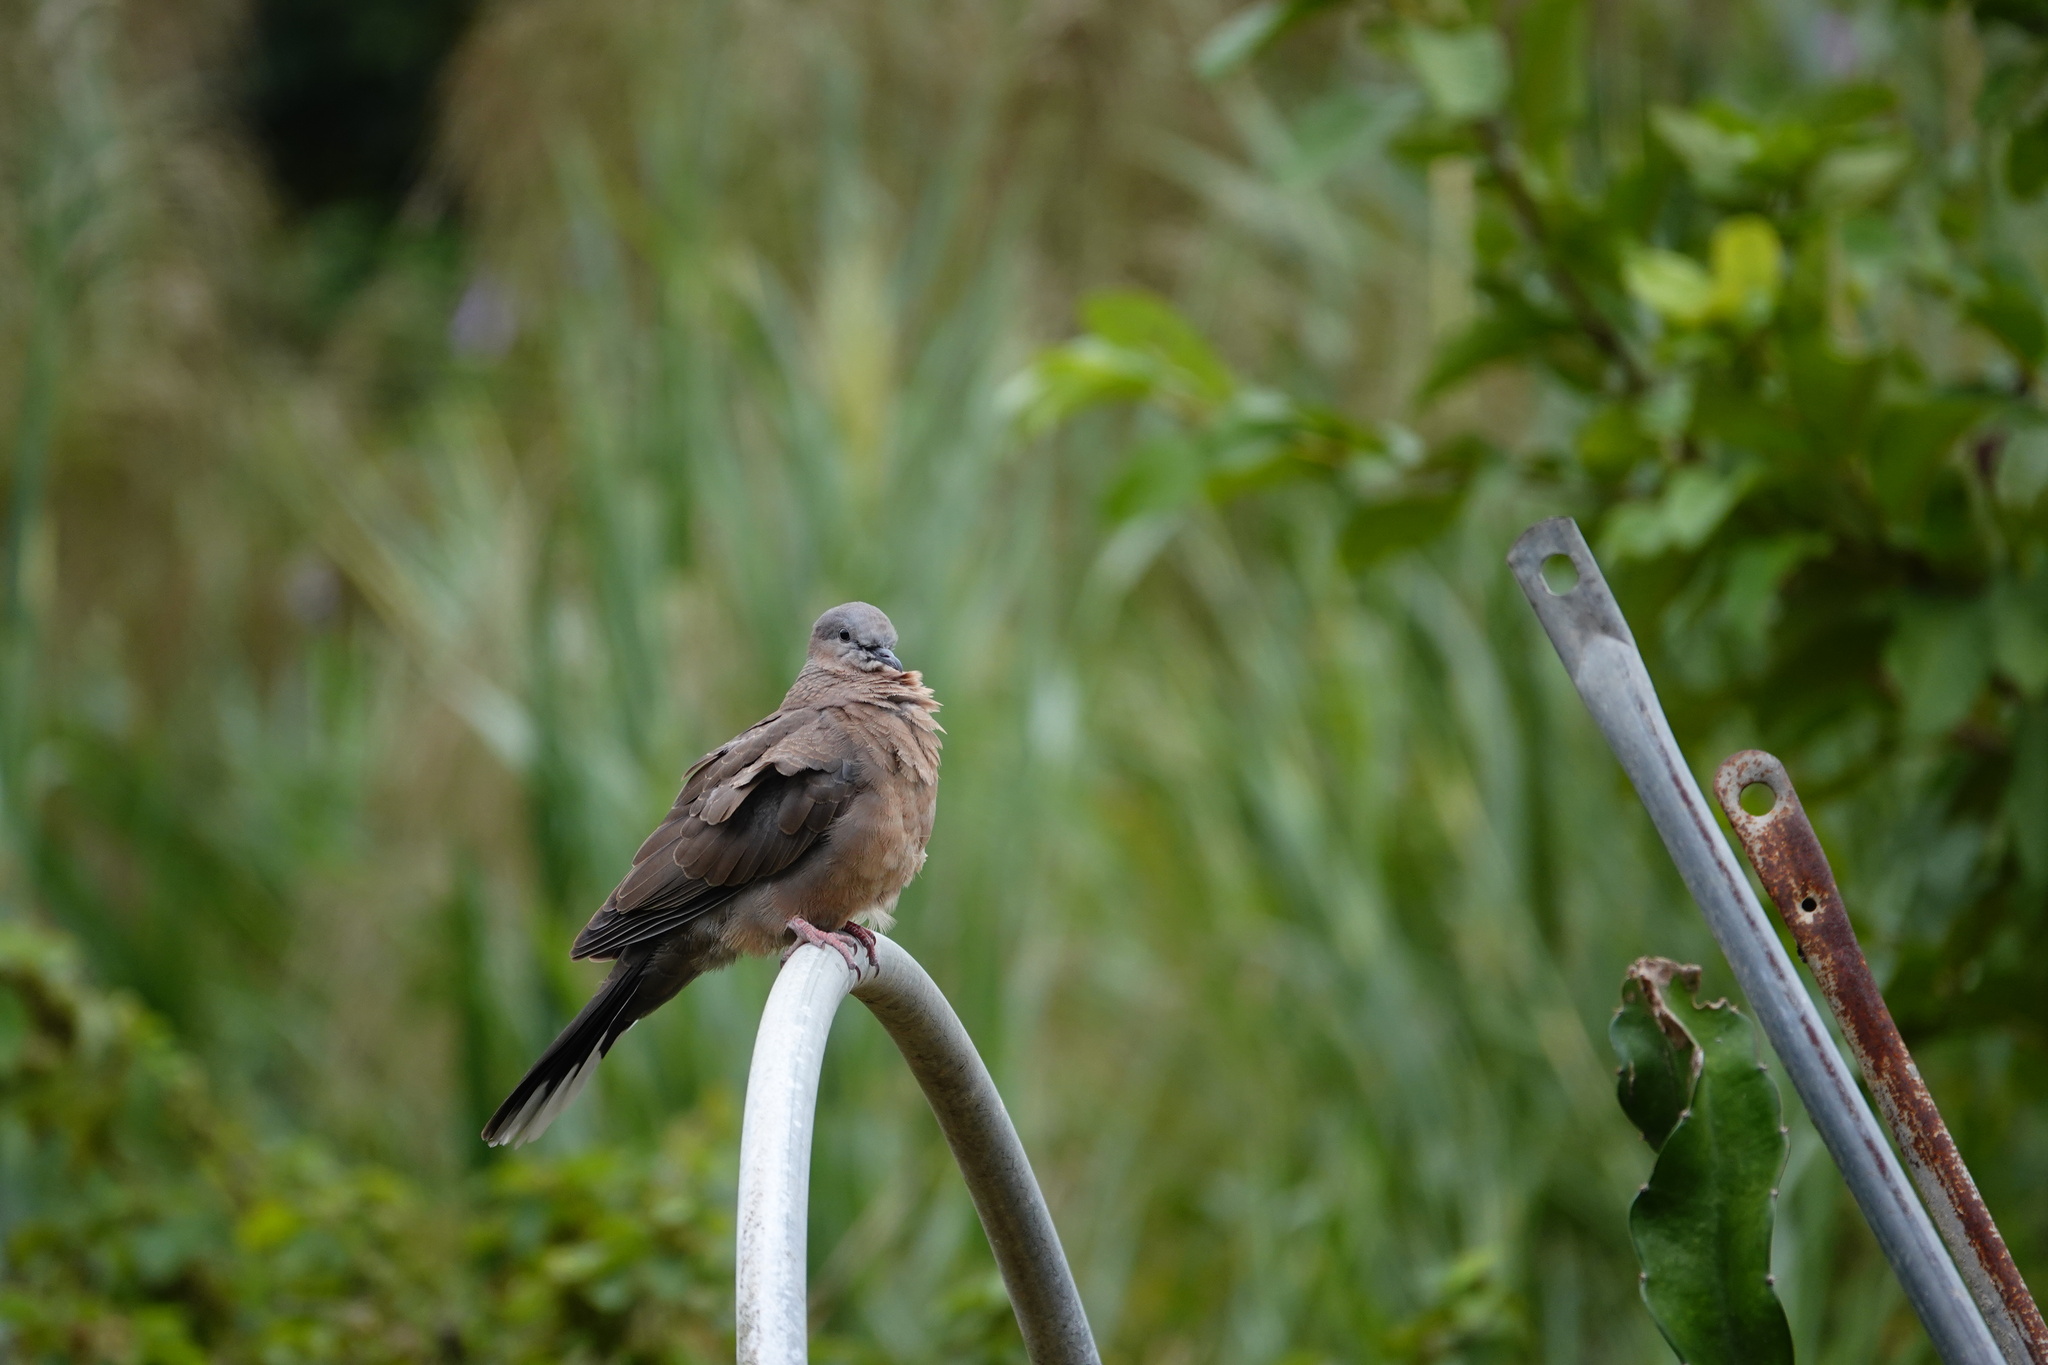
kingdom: Animalia
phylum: Chordata
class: Aves
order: Columbiformes
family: Columbidae
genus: Spilopelia
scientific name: Spilopelia chinensis
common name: Spotted dove
